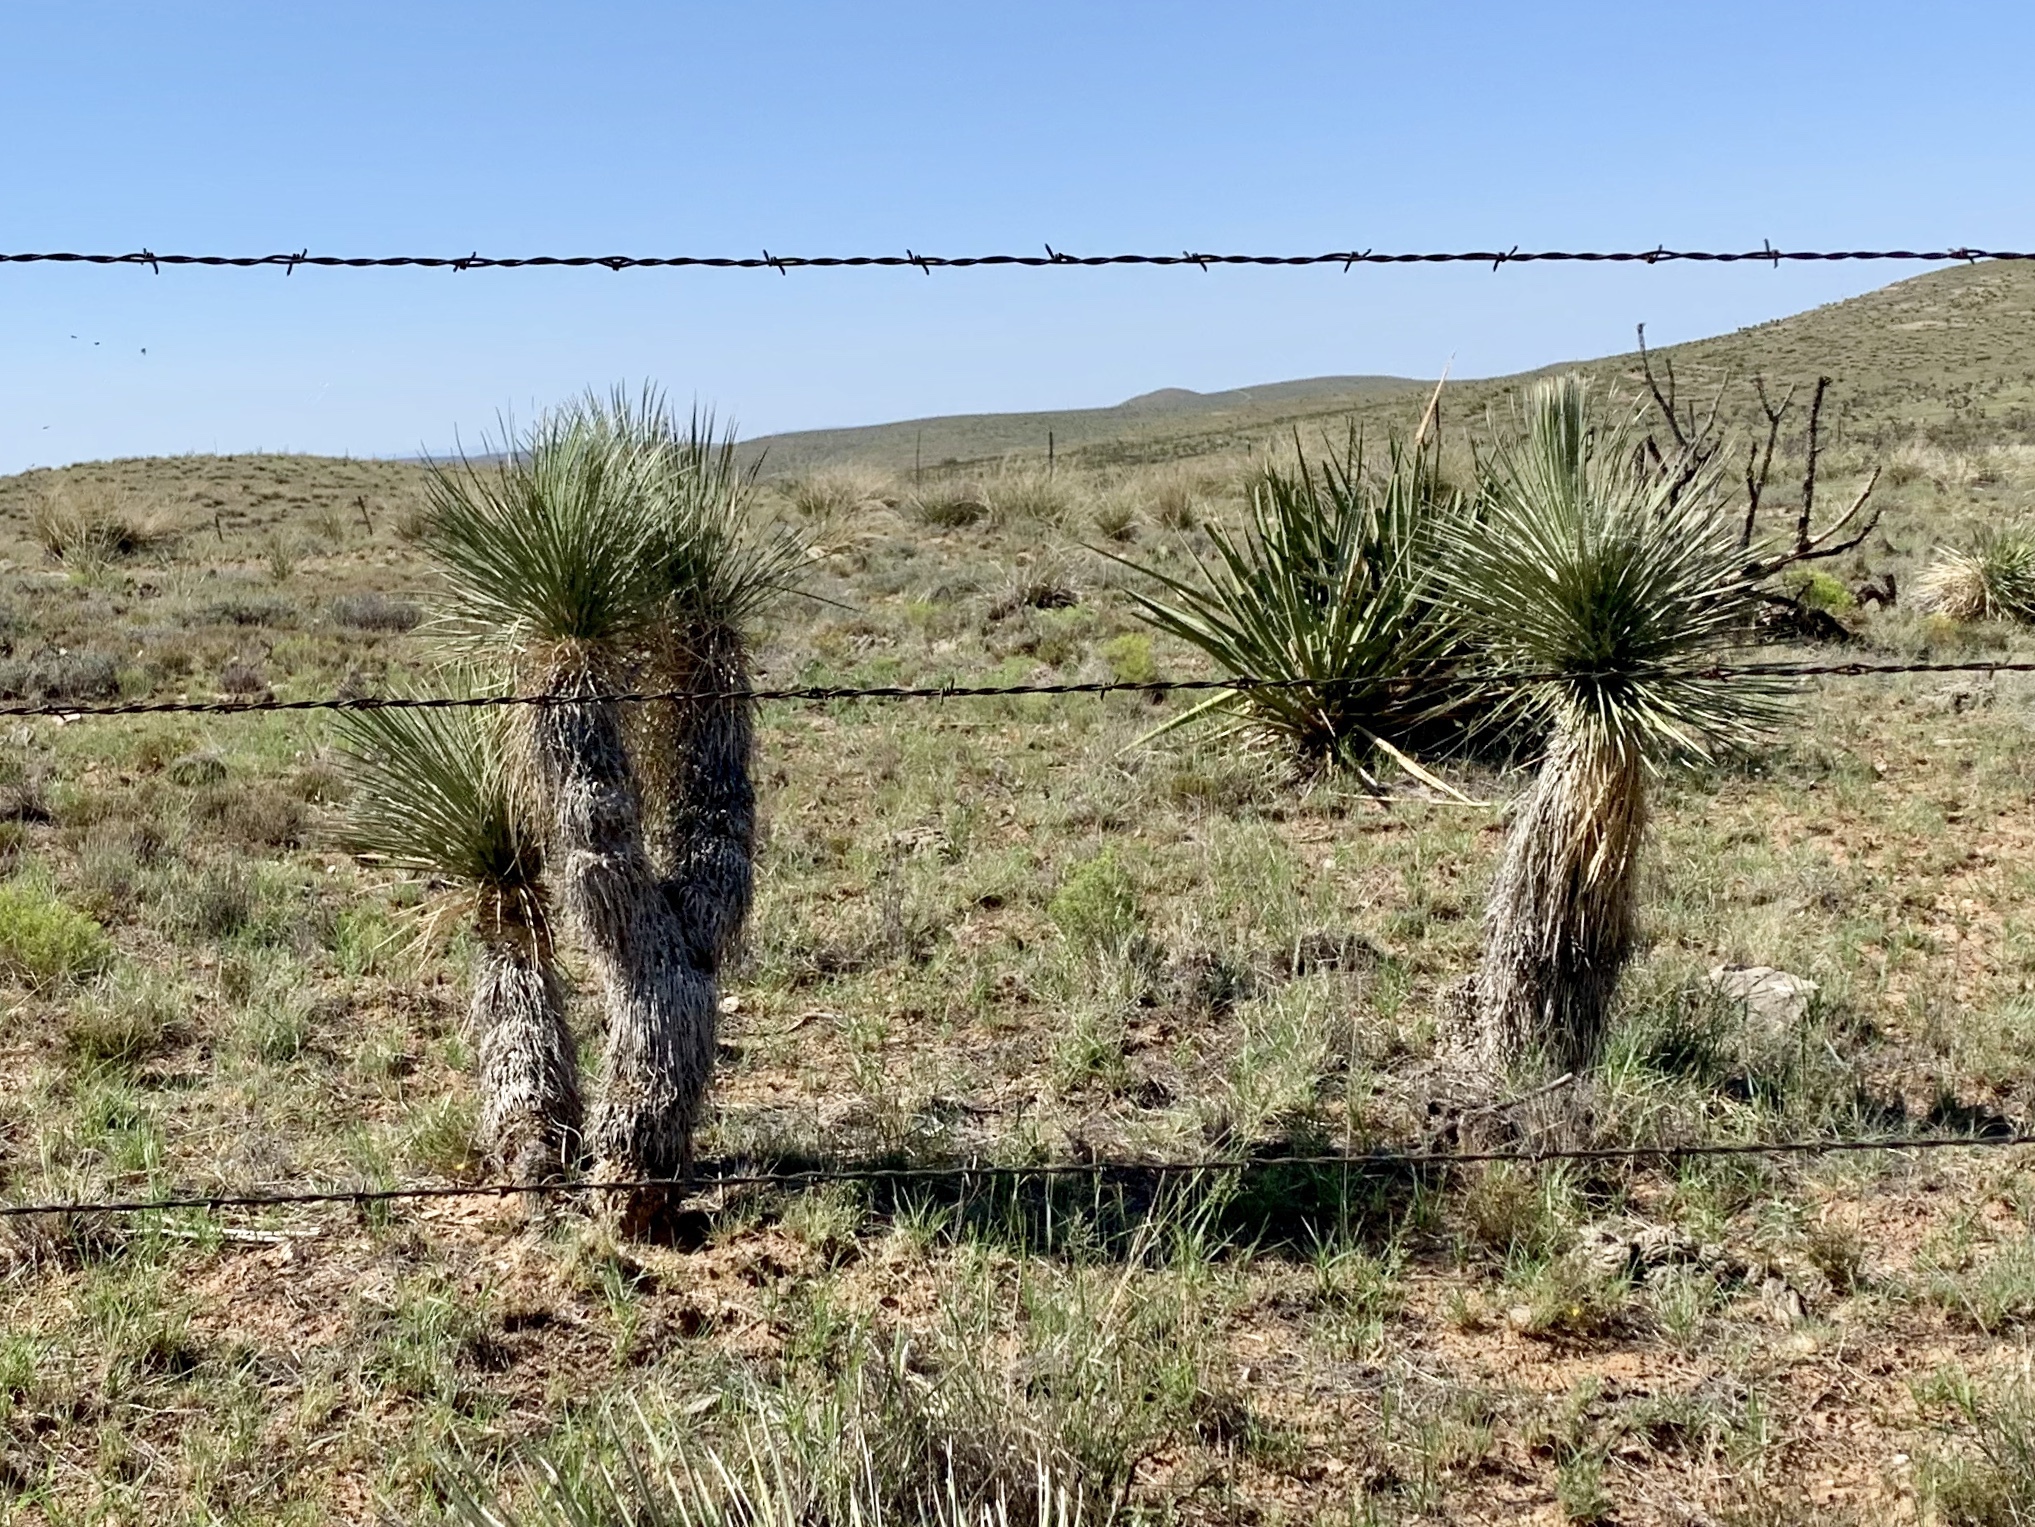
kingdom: Plantae
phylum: Tracheophyta
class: Liliopsida
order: Asparagales
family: Asparagaceae
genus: Yucca
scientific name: Yucca elata
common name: Palmella
